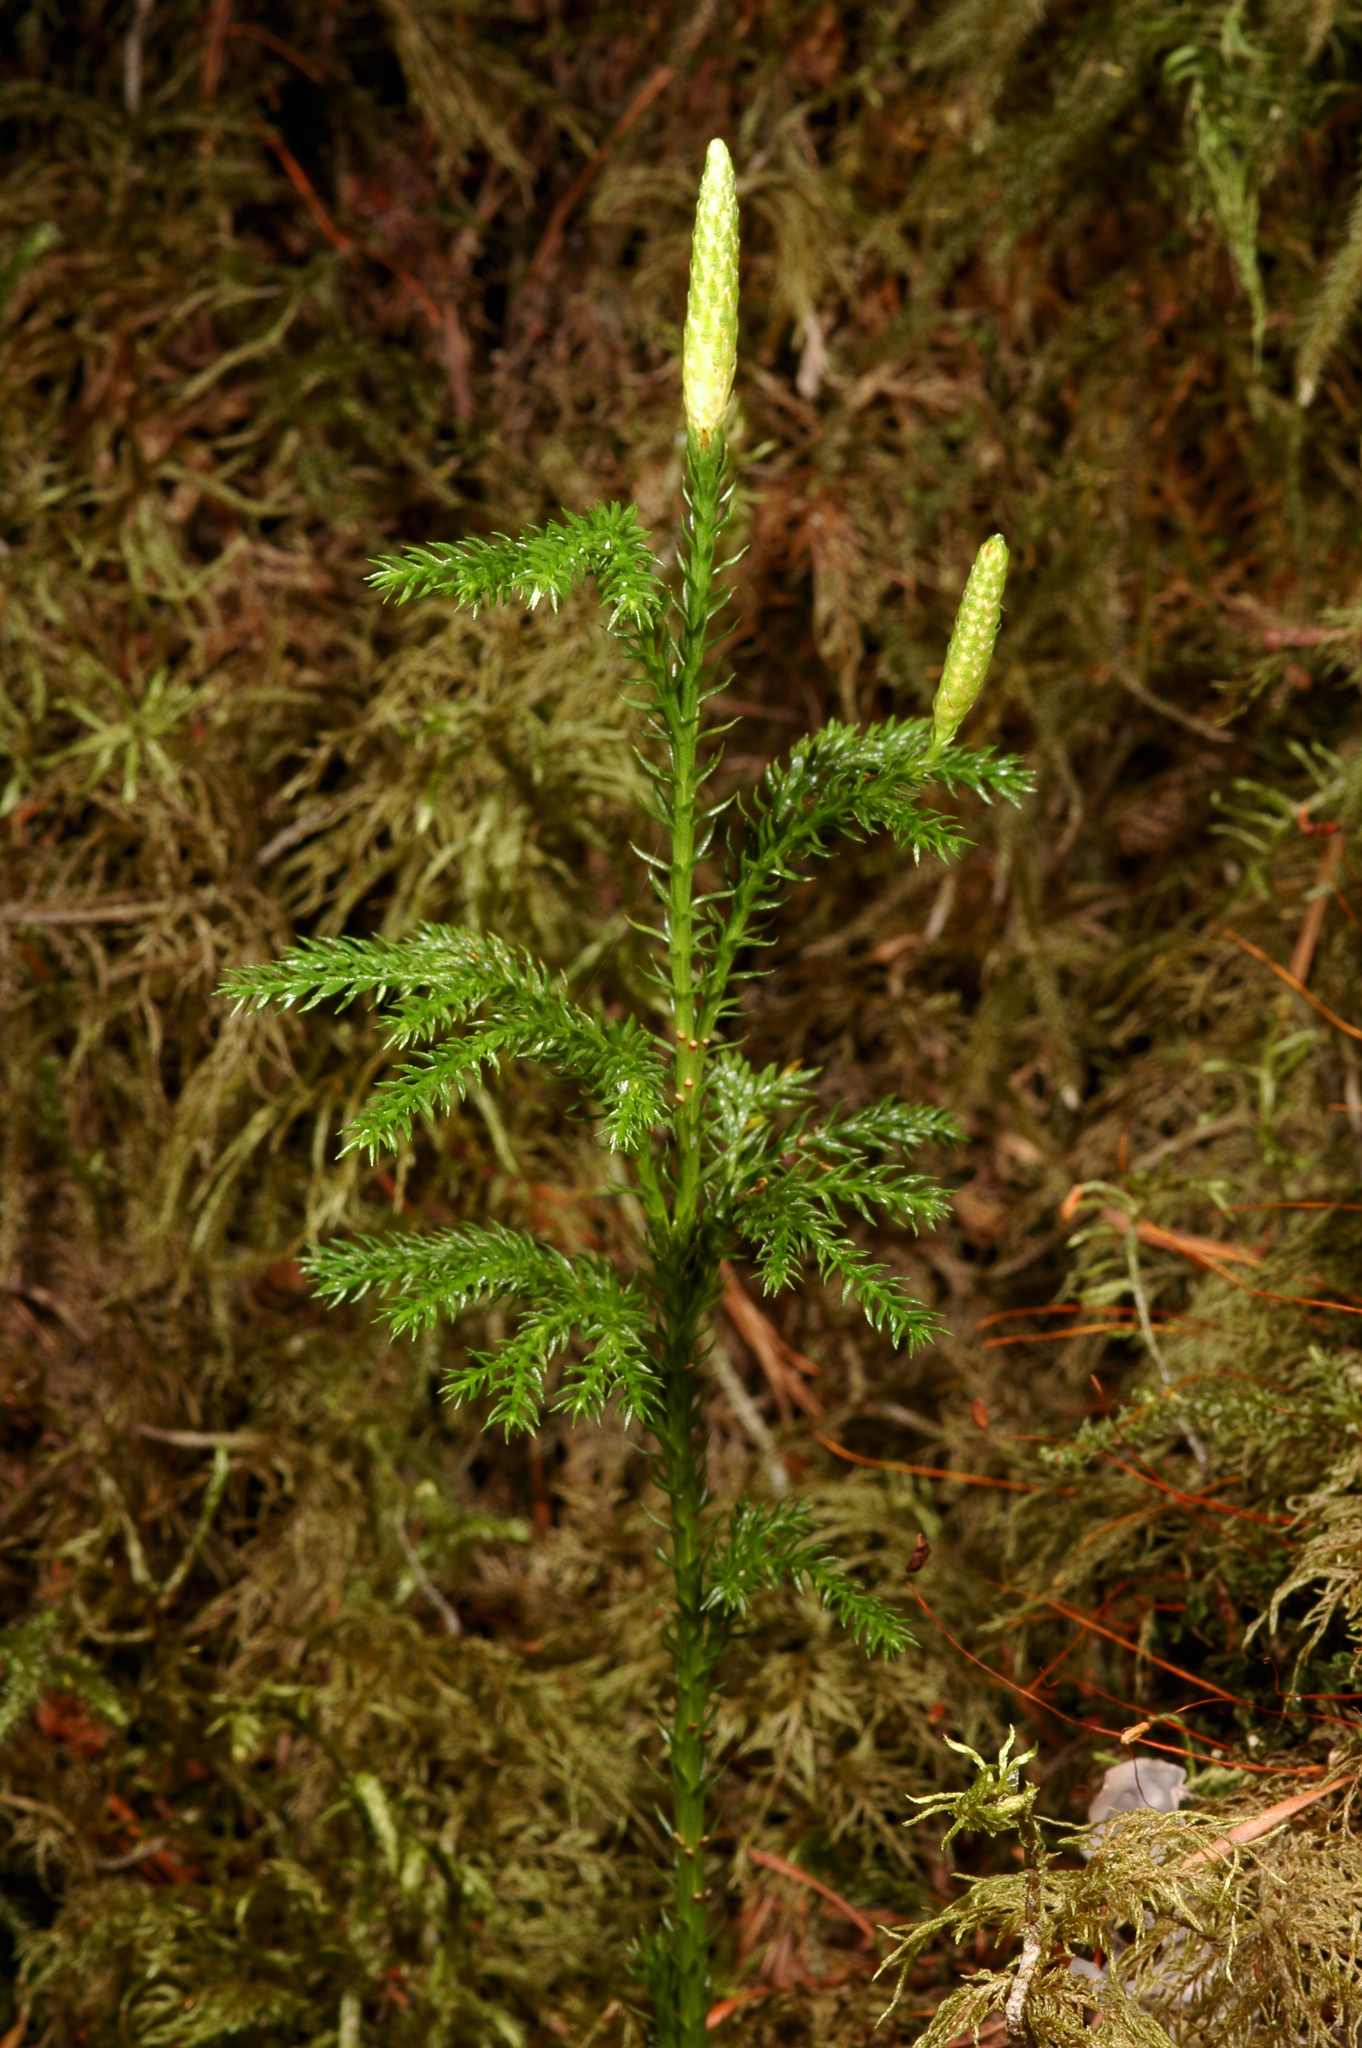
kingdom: Plantae
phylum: Tracheophyta
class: Lycopodiopsida
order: Lycopodiales
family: Lycopodiaceae
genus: Dendrolycopodium
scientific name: Dendrolycopodium dendroideum
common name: Northern tree-clubmoss
